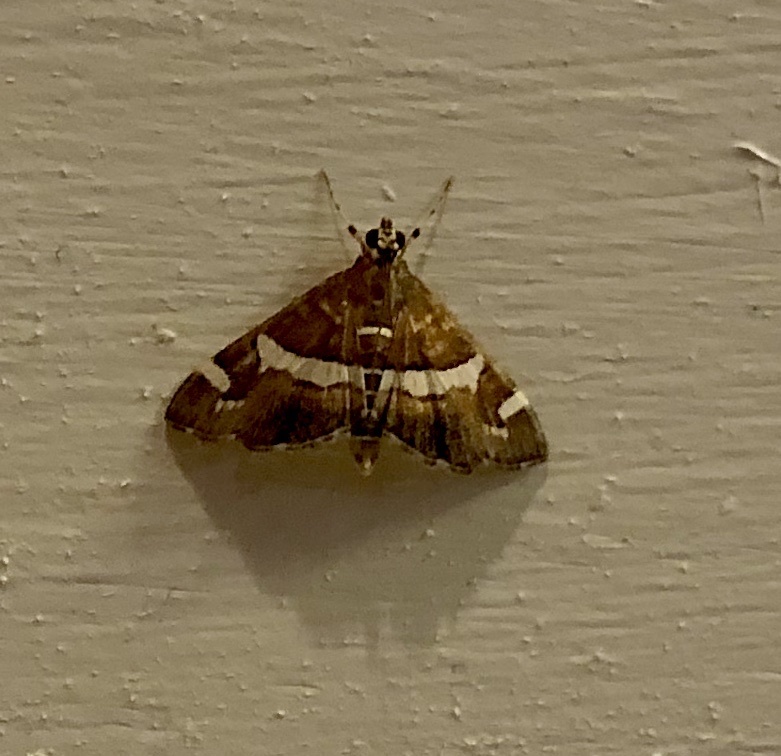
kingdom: Animalia
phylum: Arthropoda
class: Insecta
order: Lepidoptera
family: Crambidae
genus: Spoladea
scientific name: Spoladea recurvalis
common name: Beet webworm moth
